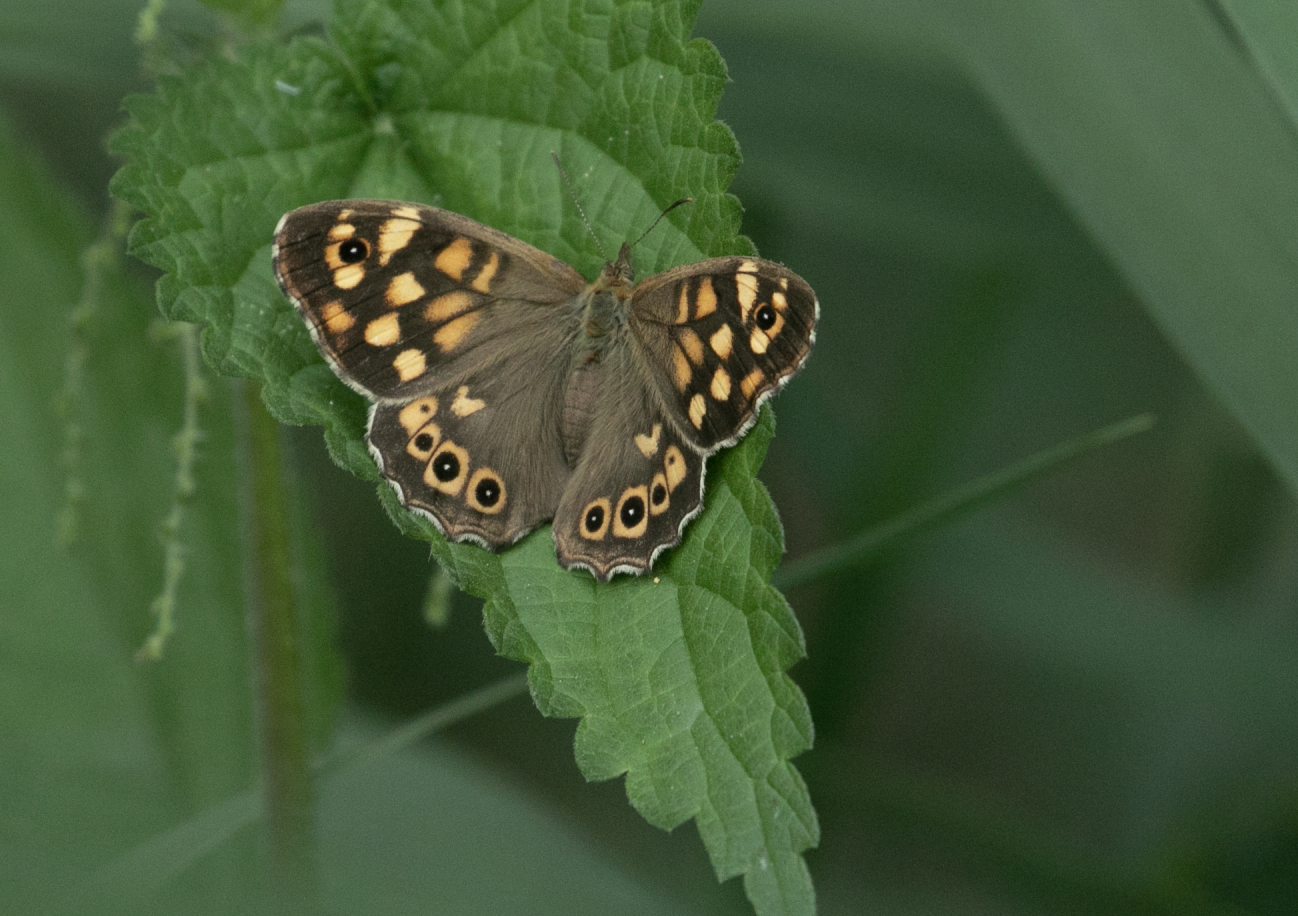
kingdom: Animalia
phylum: Arthropoda
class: Insecta
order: Lepidoptera
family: Nymphalidae
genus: Pararge
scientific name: Pararge aegeria
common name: Speckled wood
